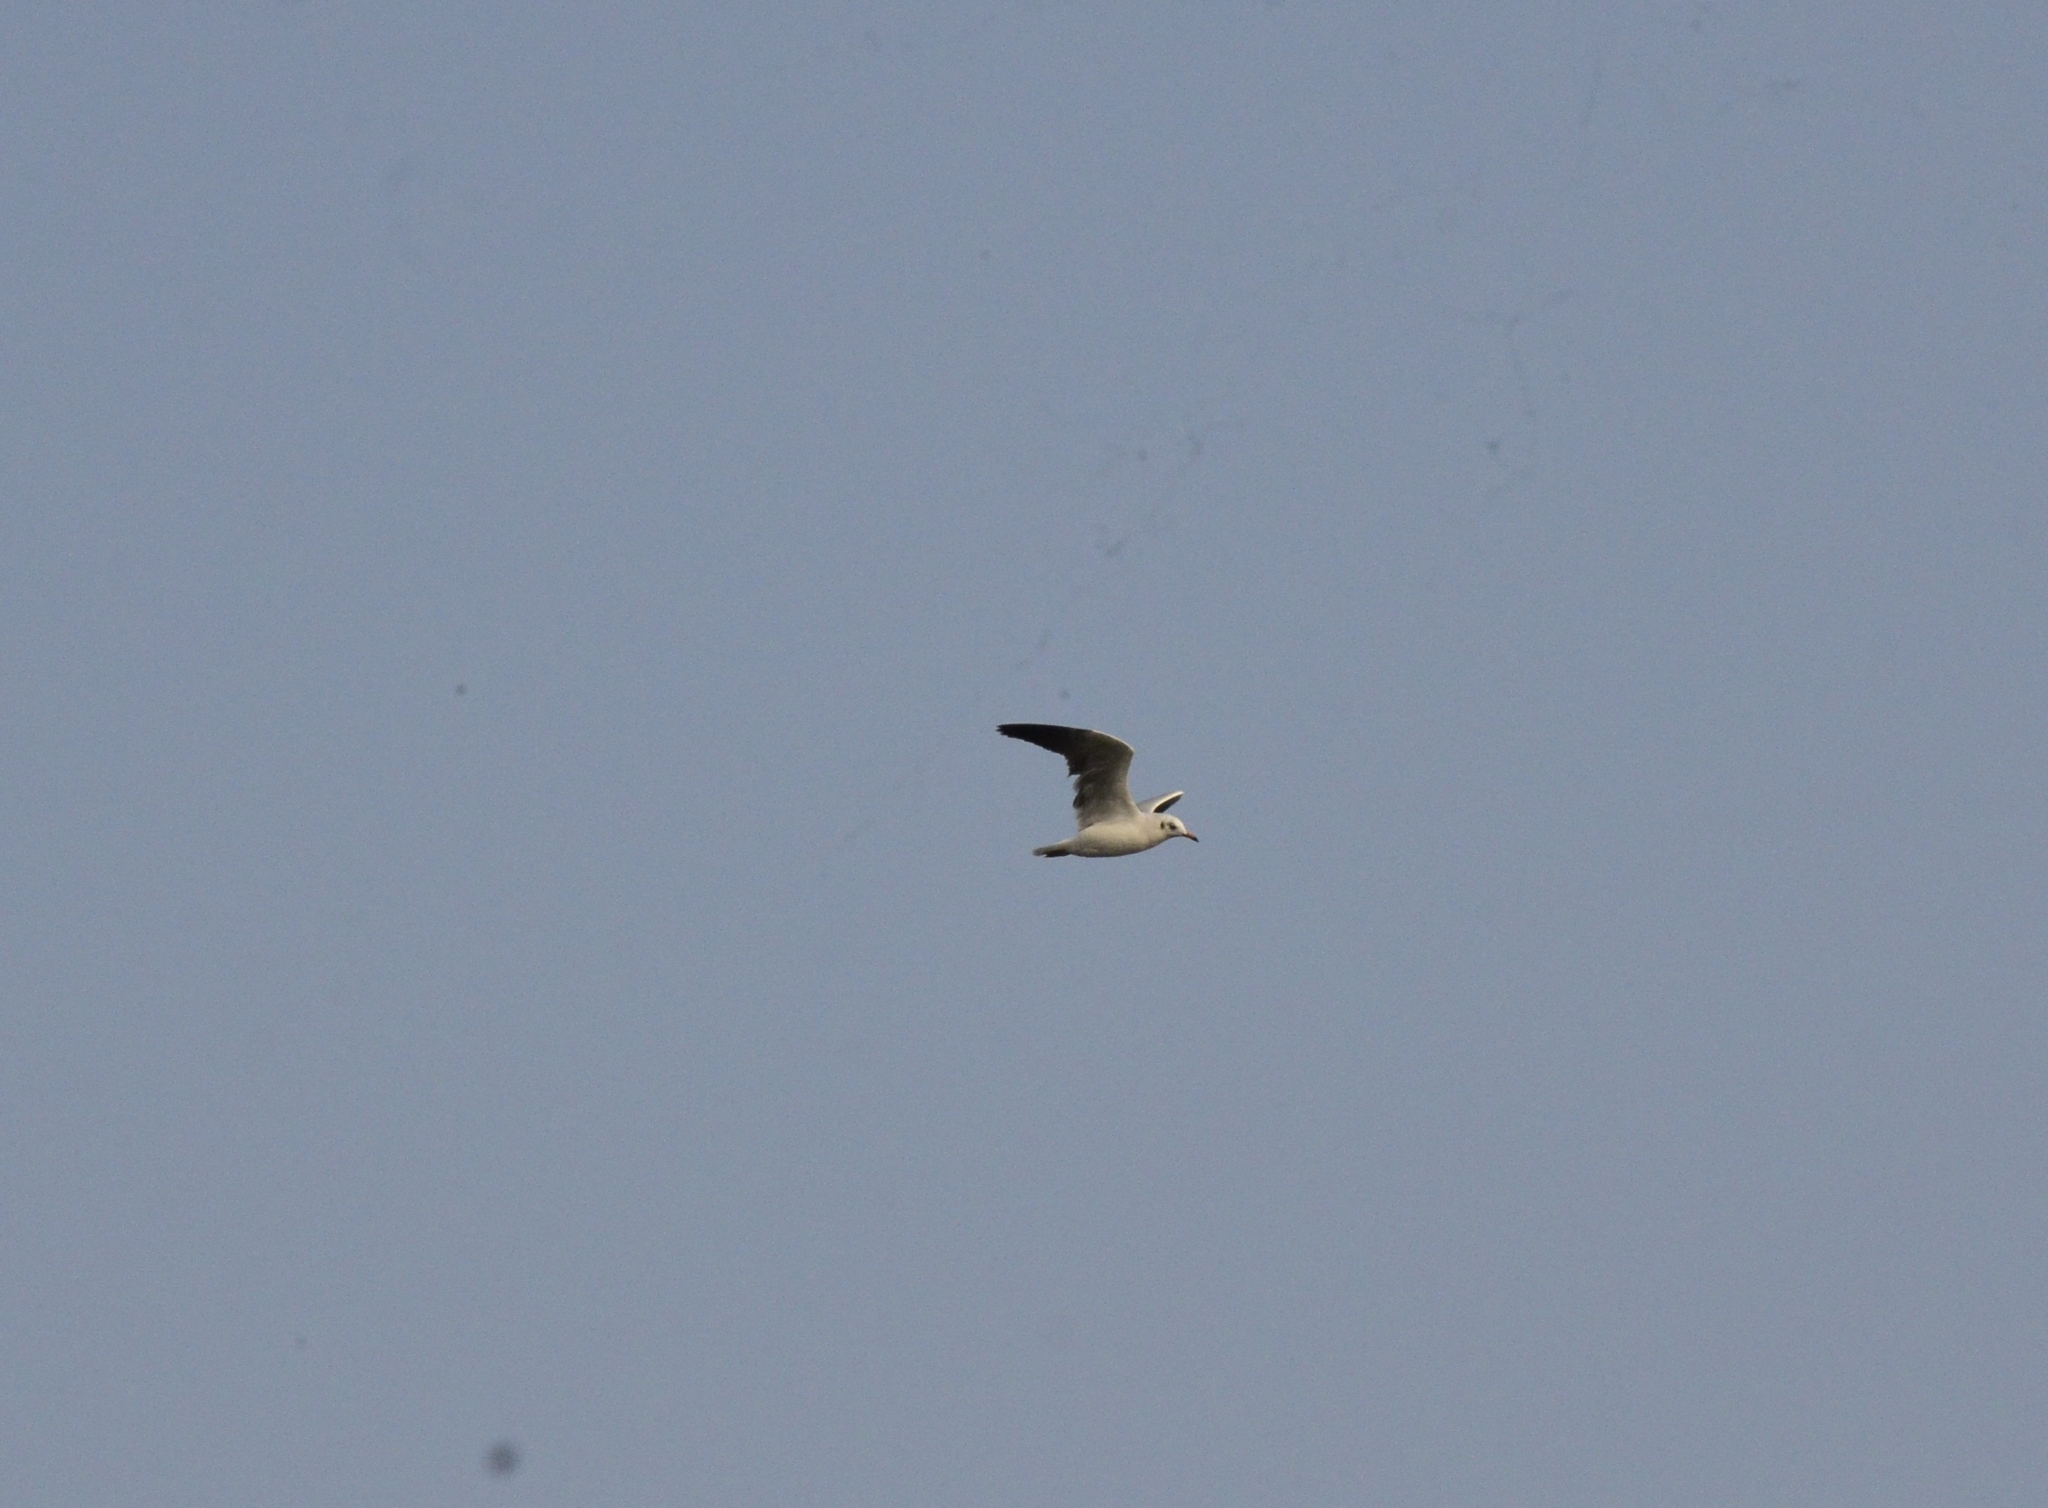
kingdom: Animalia
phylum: Chordata
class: Aves
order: Charadriiformes
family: Laridae
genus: Chroicocephalus
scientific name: Chroicocephalus brunnicephalus
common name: Brown-headed gull
